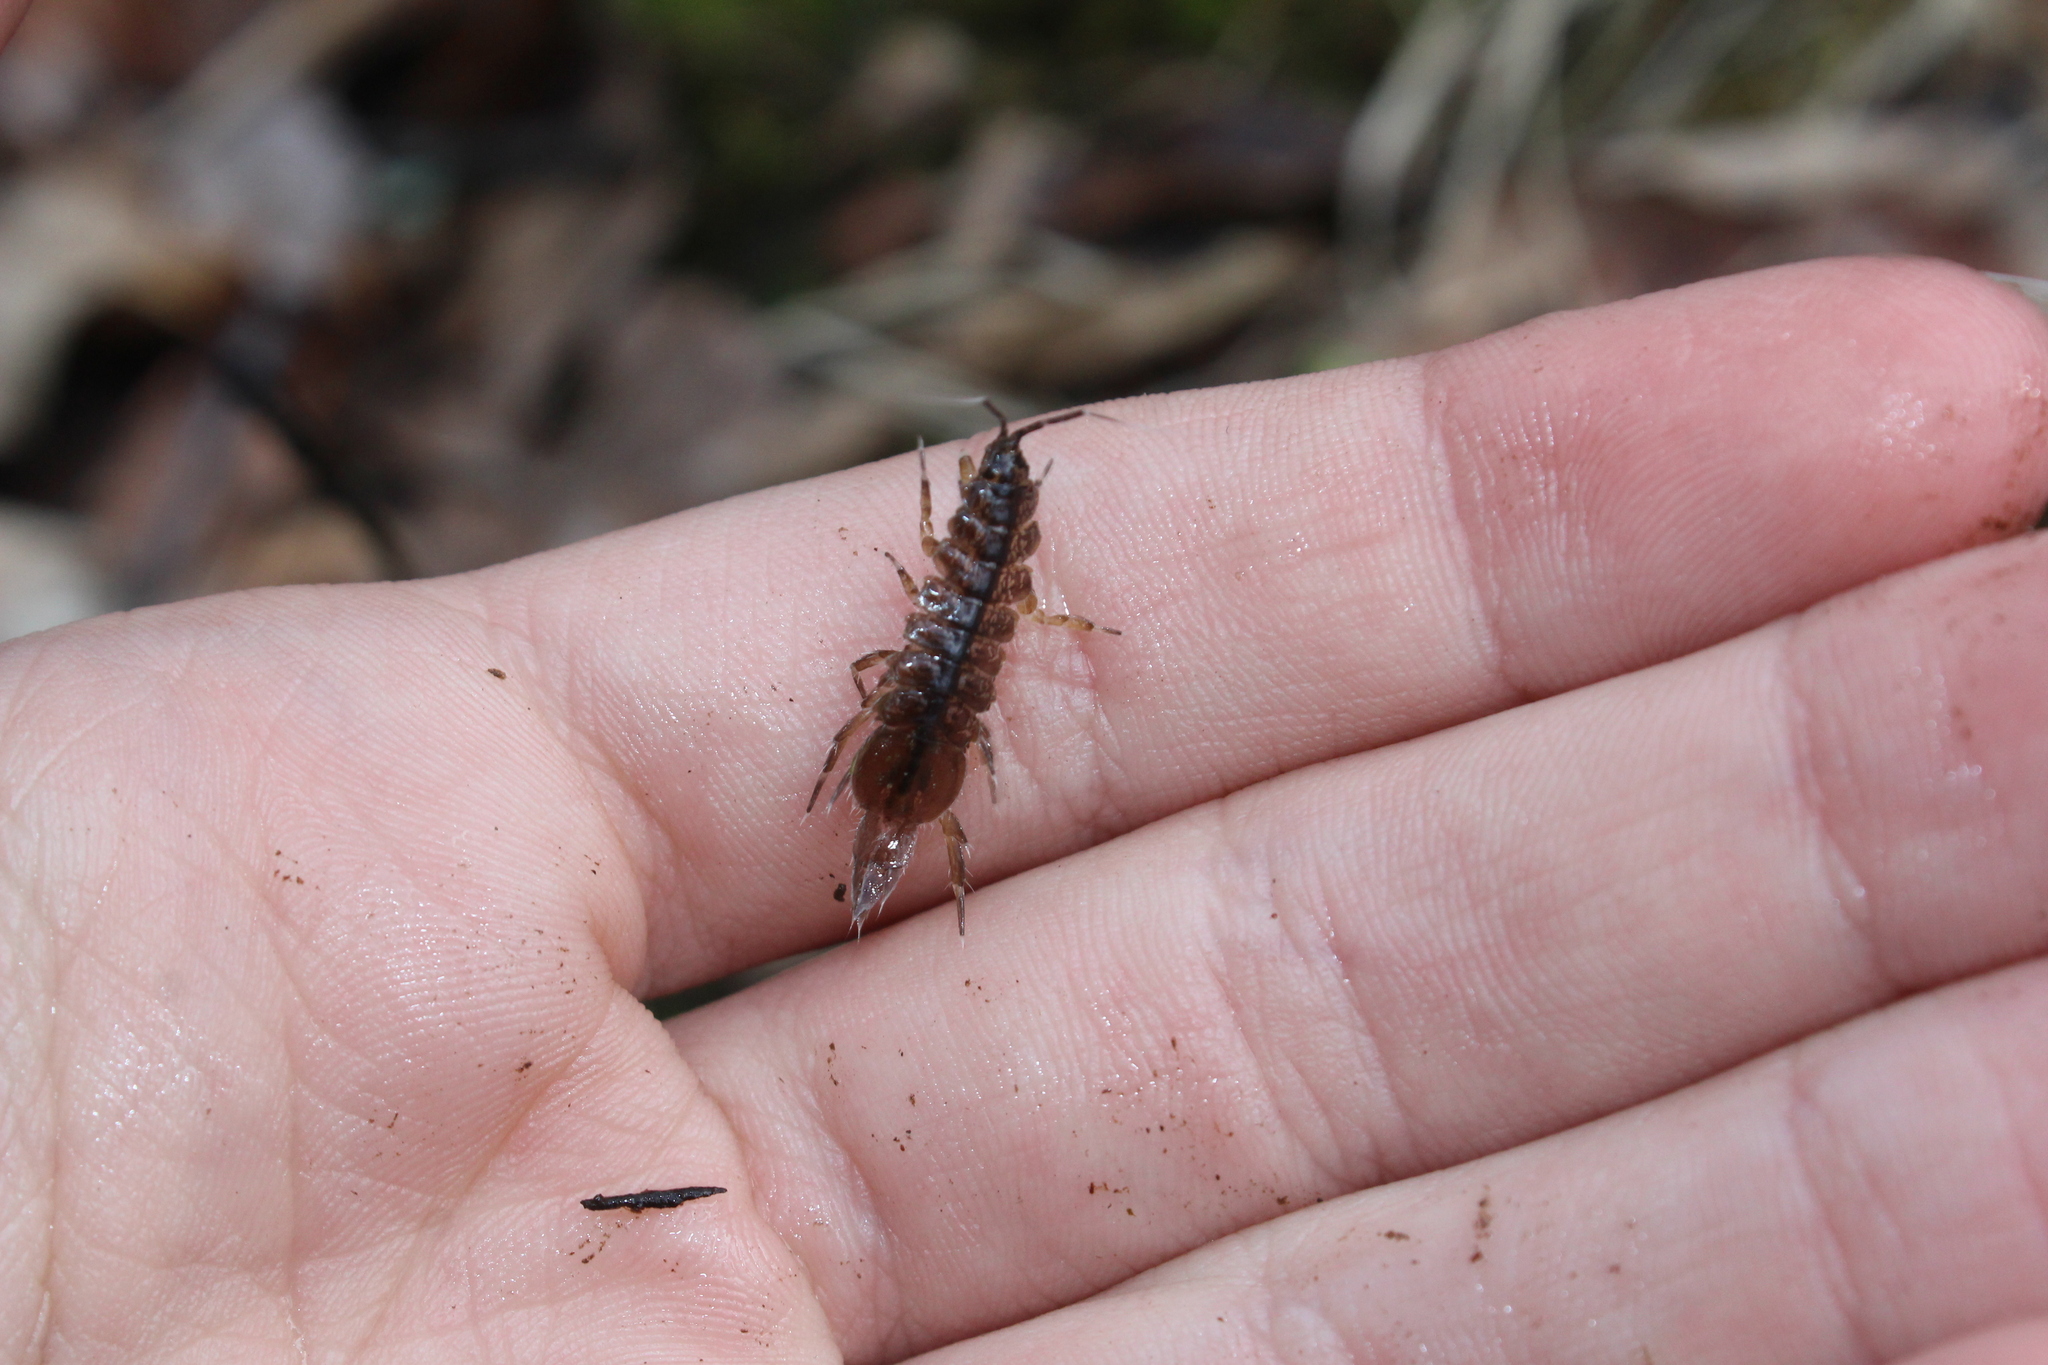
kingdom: Animalia
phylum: Arthropoda
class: Malacostraca
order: Isopoda
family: Asellidae
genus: Caecidotea
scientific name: Caecidotea
